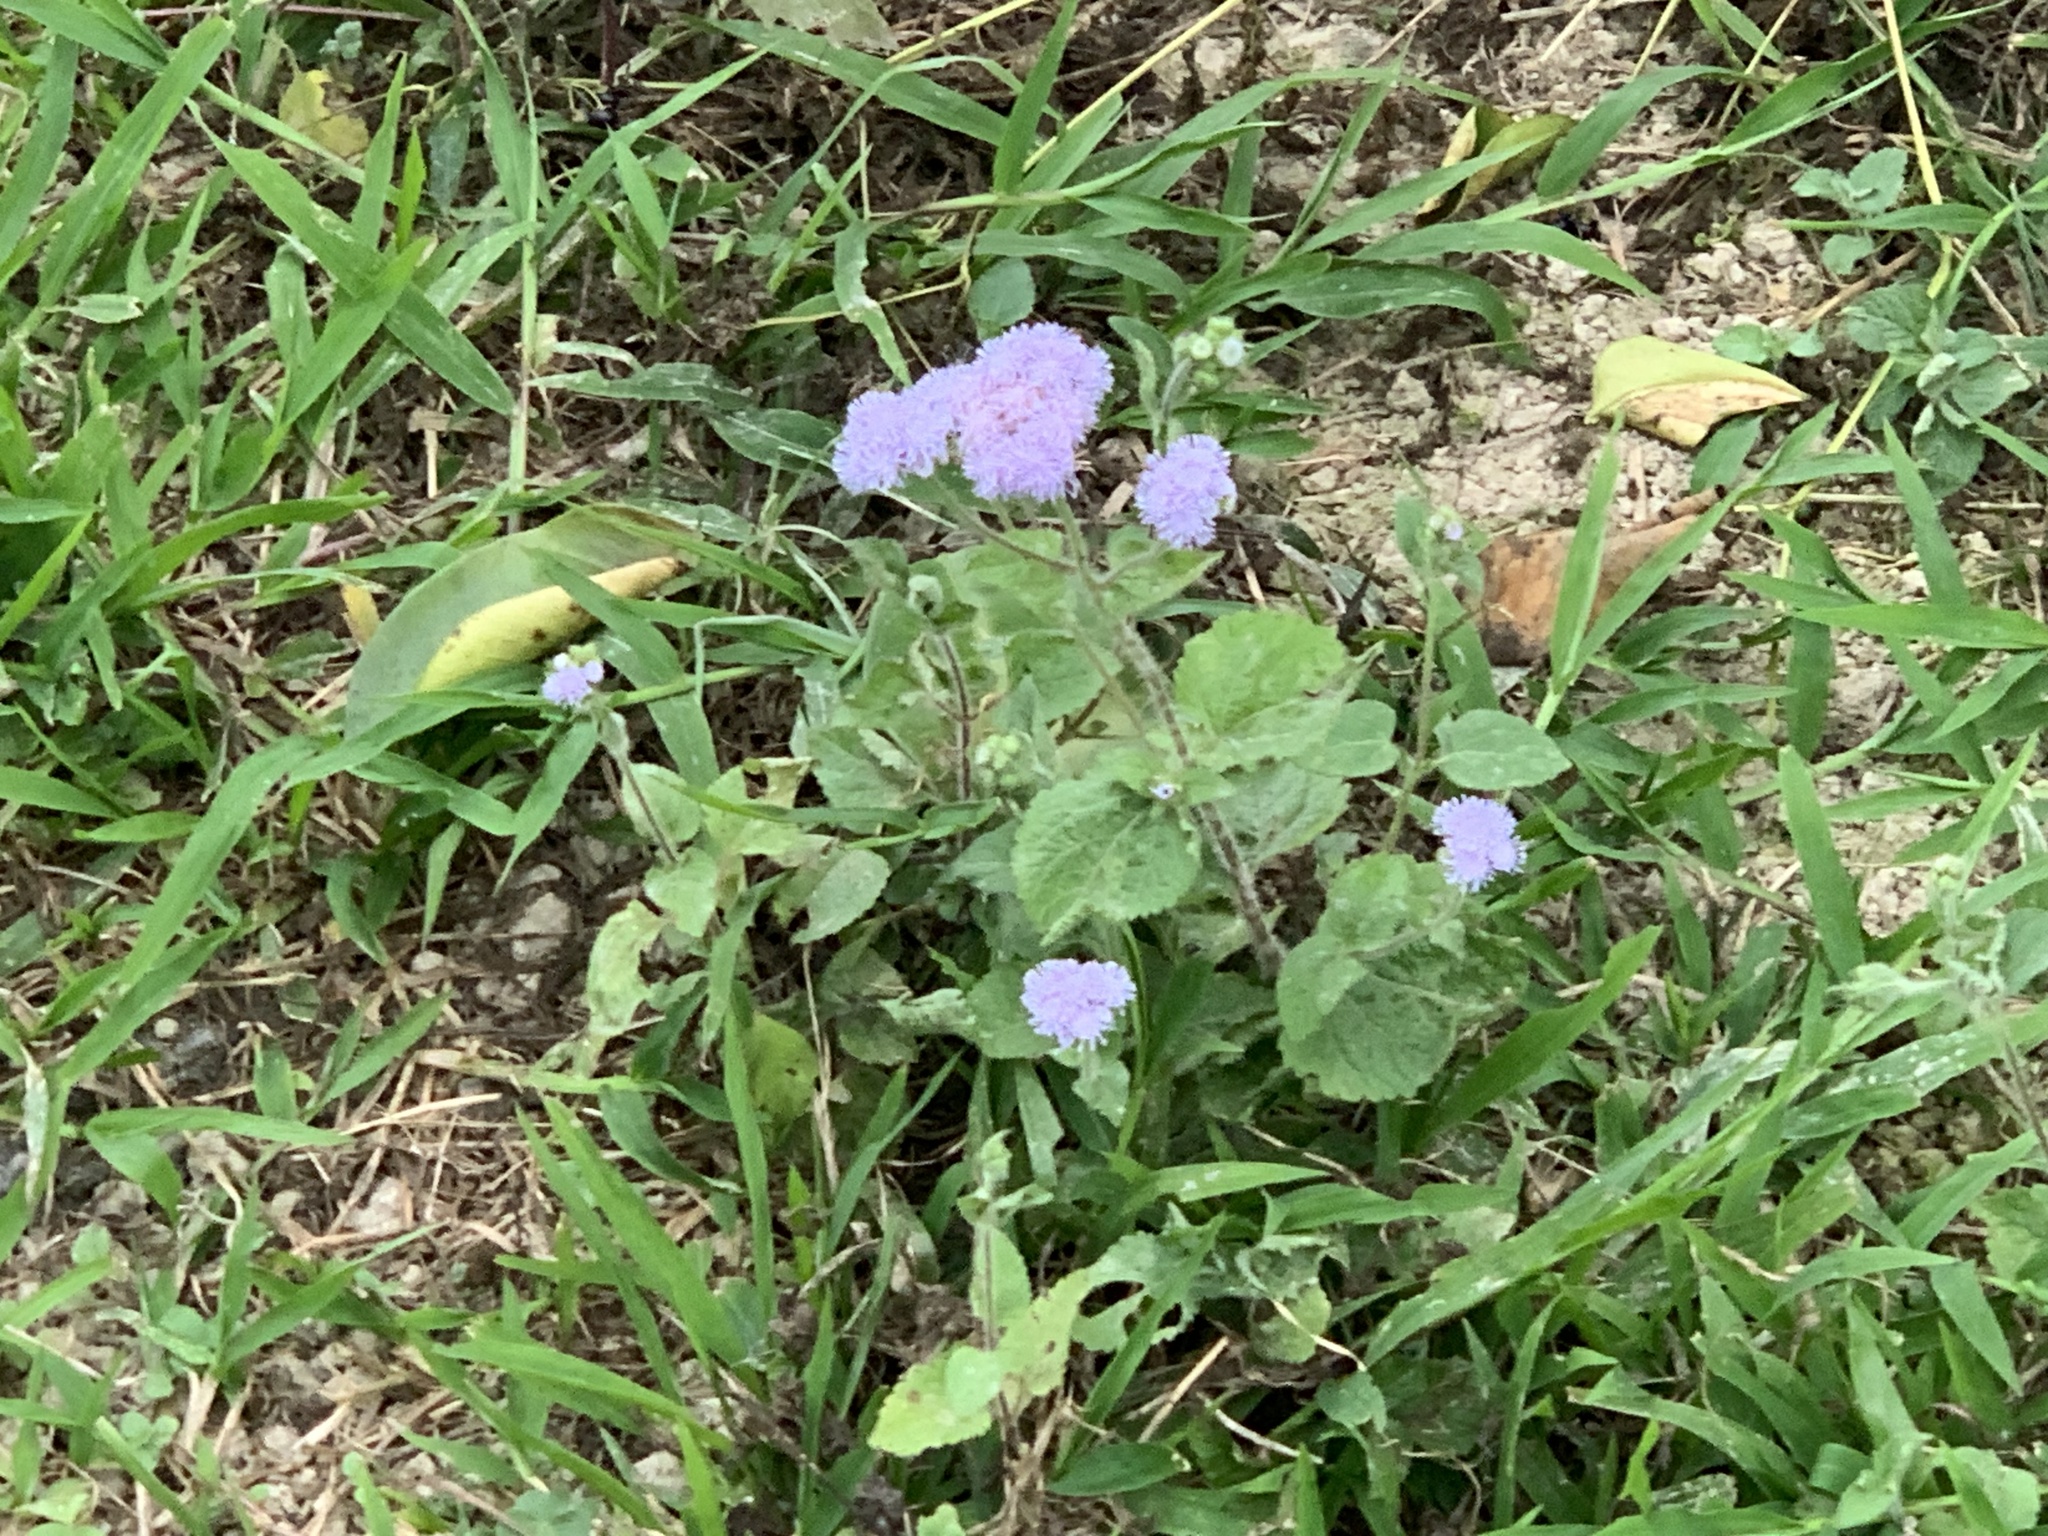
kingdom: Plantae
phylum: Tracheophyta
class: Magnoliopsida
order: Asterales
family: Asteraceae
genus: Ageratum
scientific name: Ageratum houstonianum
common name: Bluemink
